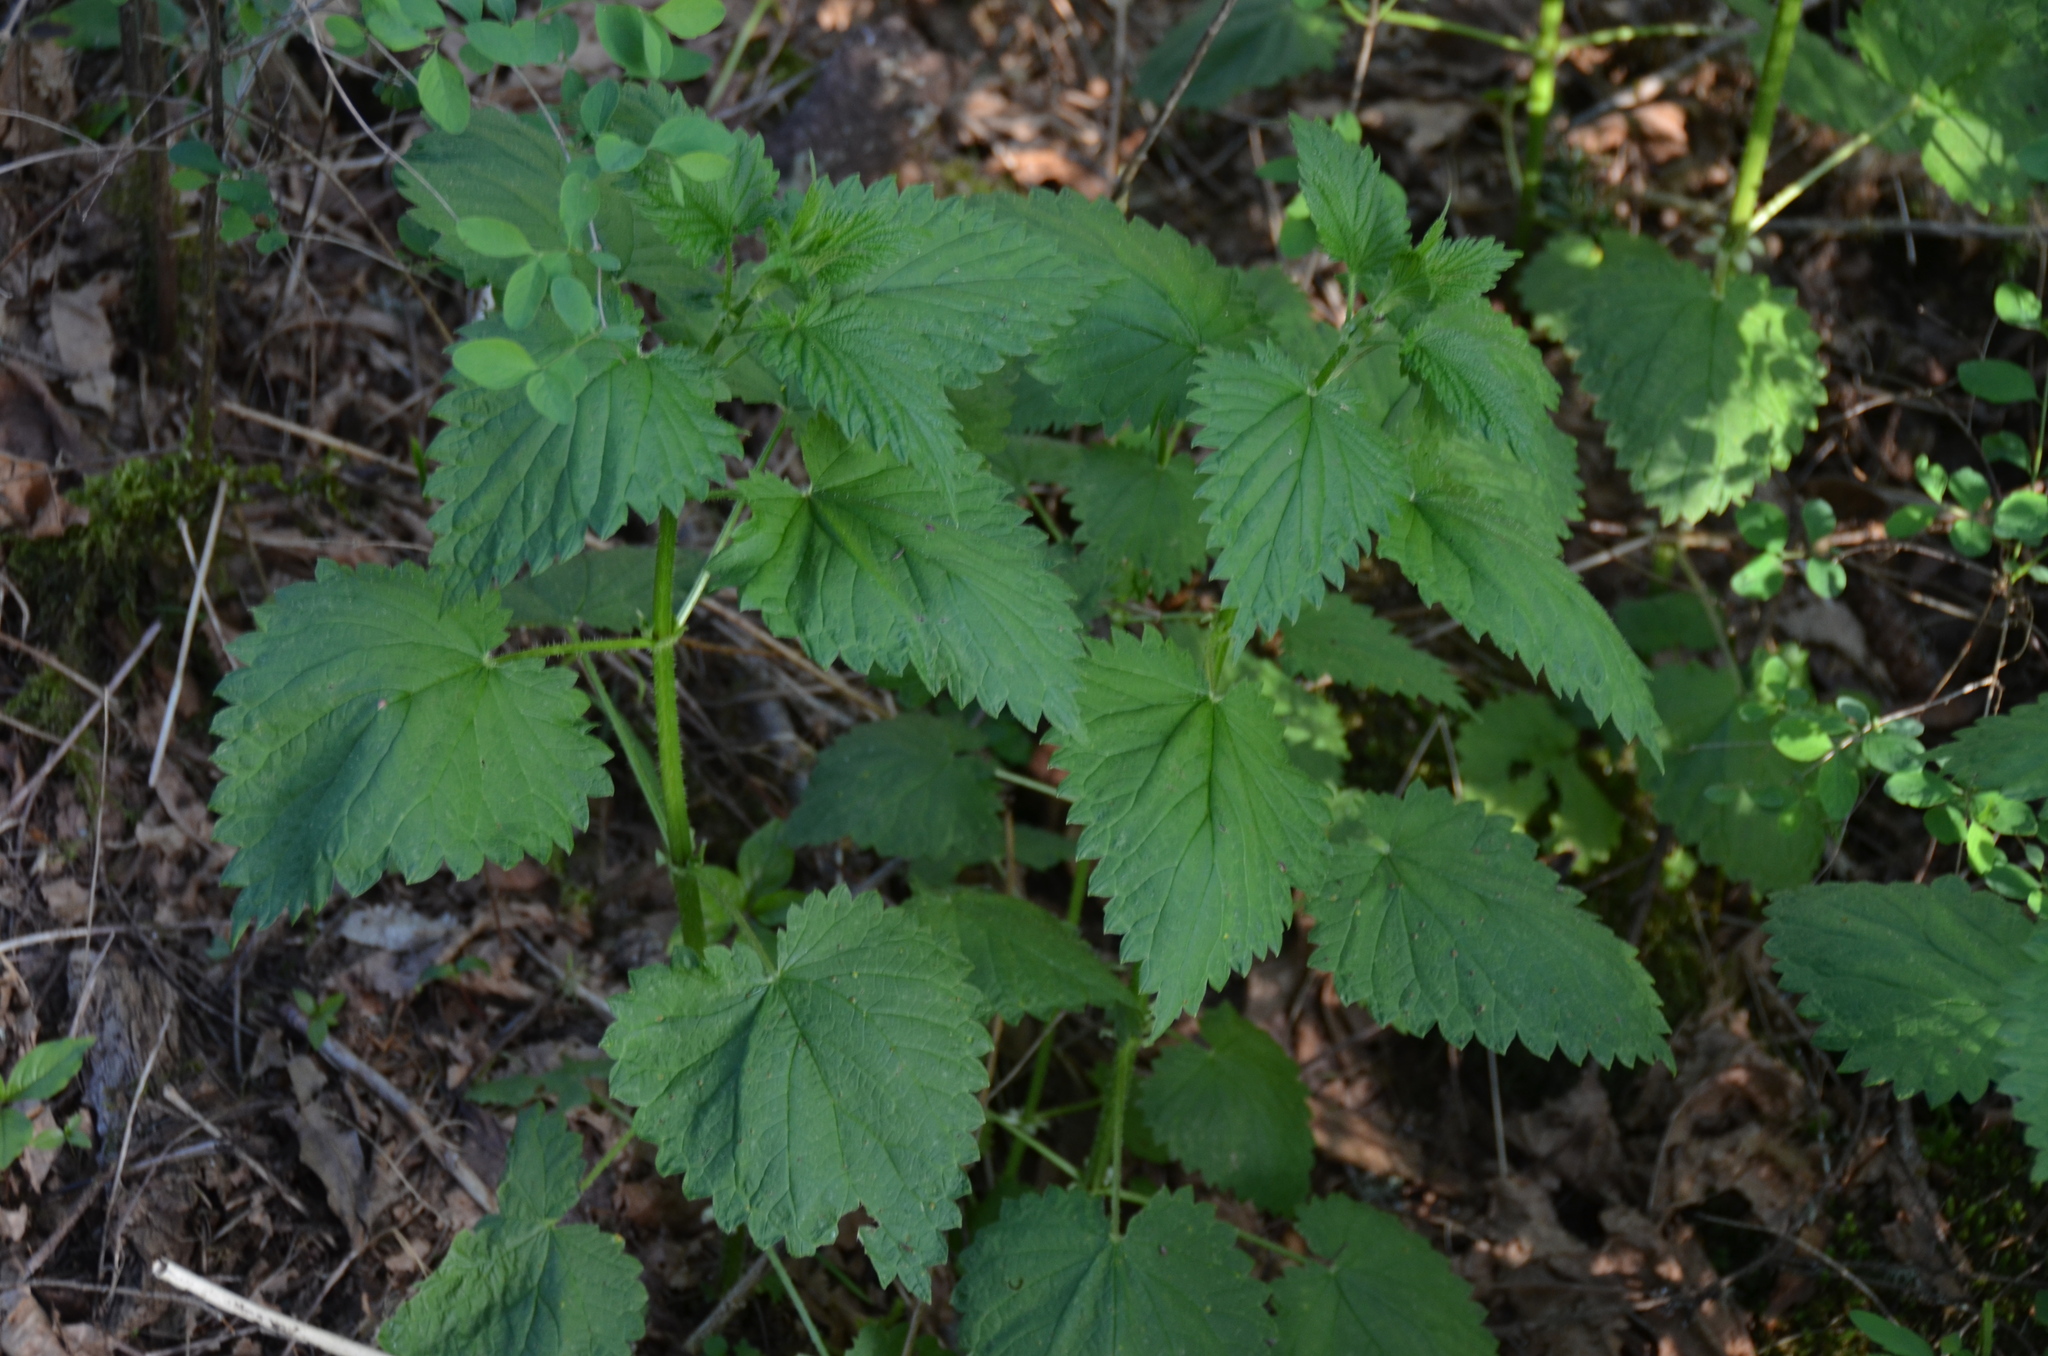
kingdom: Plantae
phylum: Tracheophyta
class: Magnoliopsida
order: Rosales
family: Urticaceae
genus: Urtica
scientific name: Urtica dioica
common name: Common nettle
